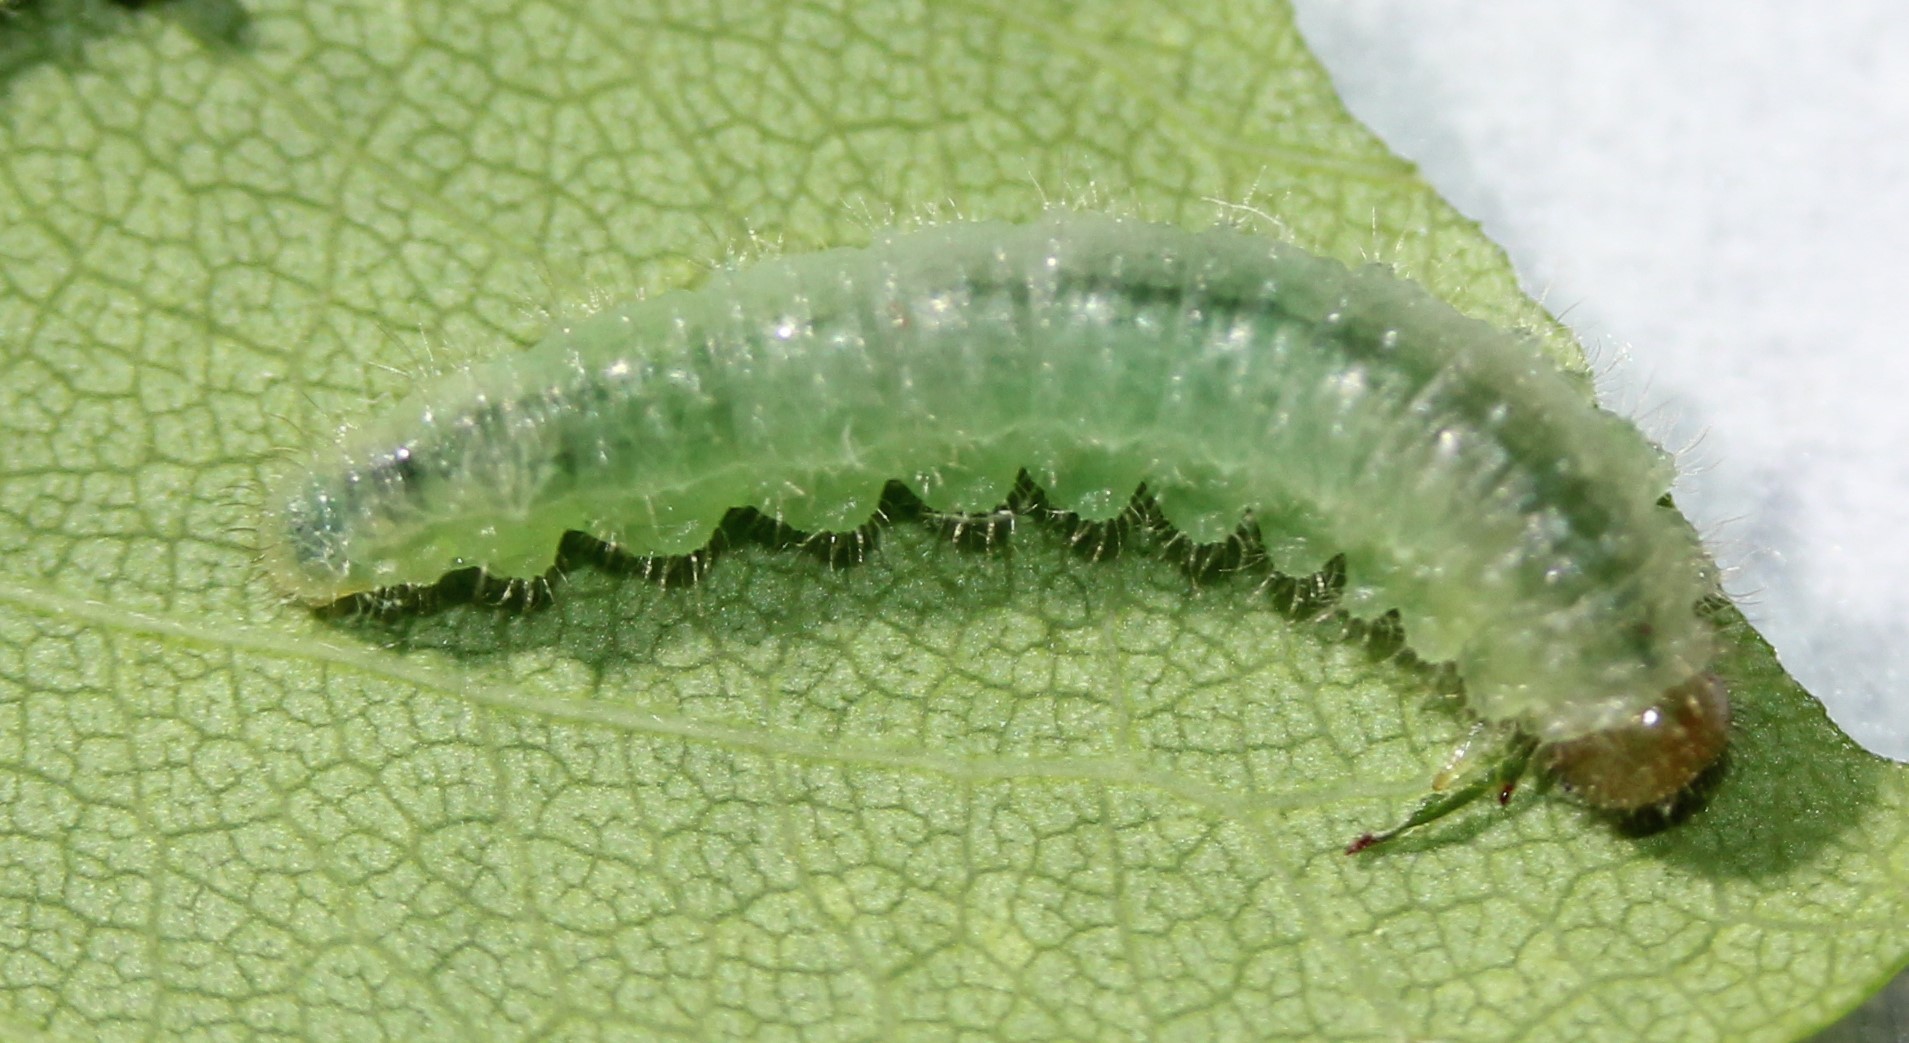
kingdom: Animalia
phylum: Arthropoda
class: Insecta
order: Hymenoptera
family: Tenthredinidae
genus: Cladius
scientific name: Cladius pectinicornis
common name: Sawfly
